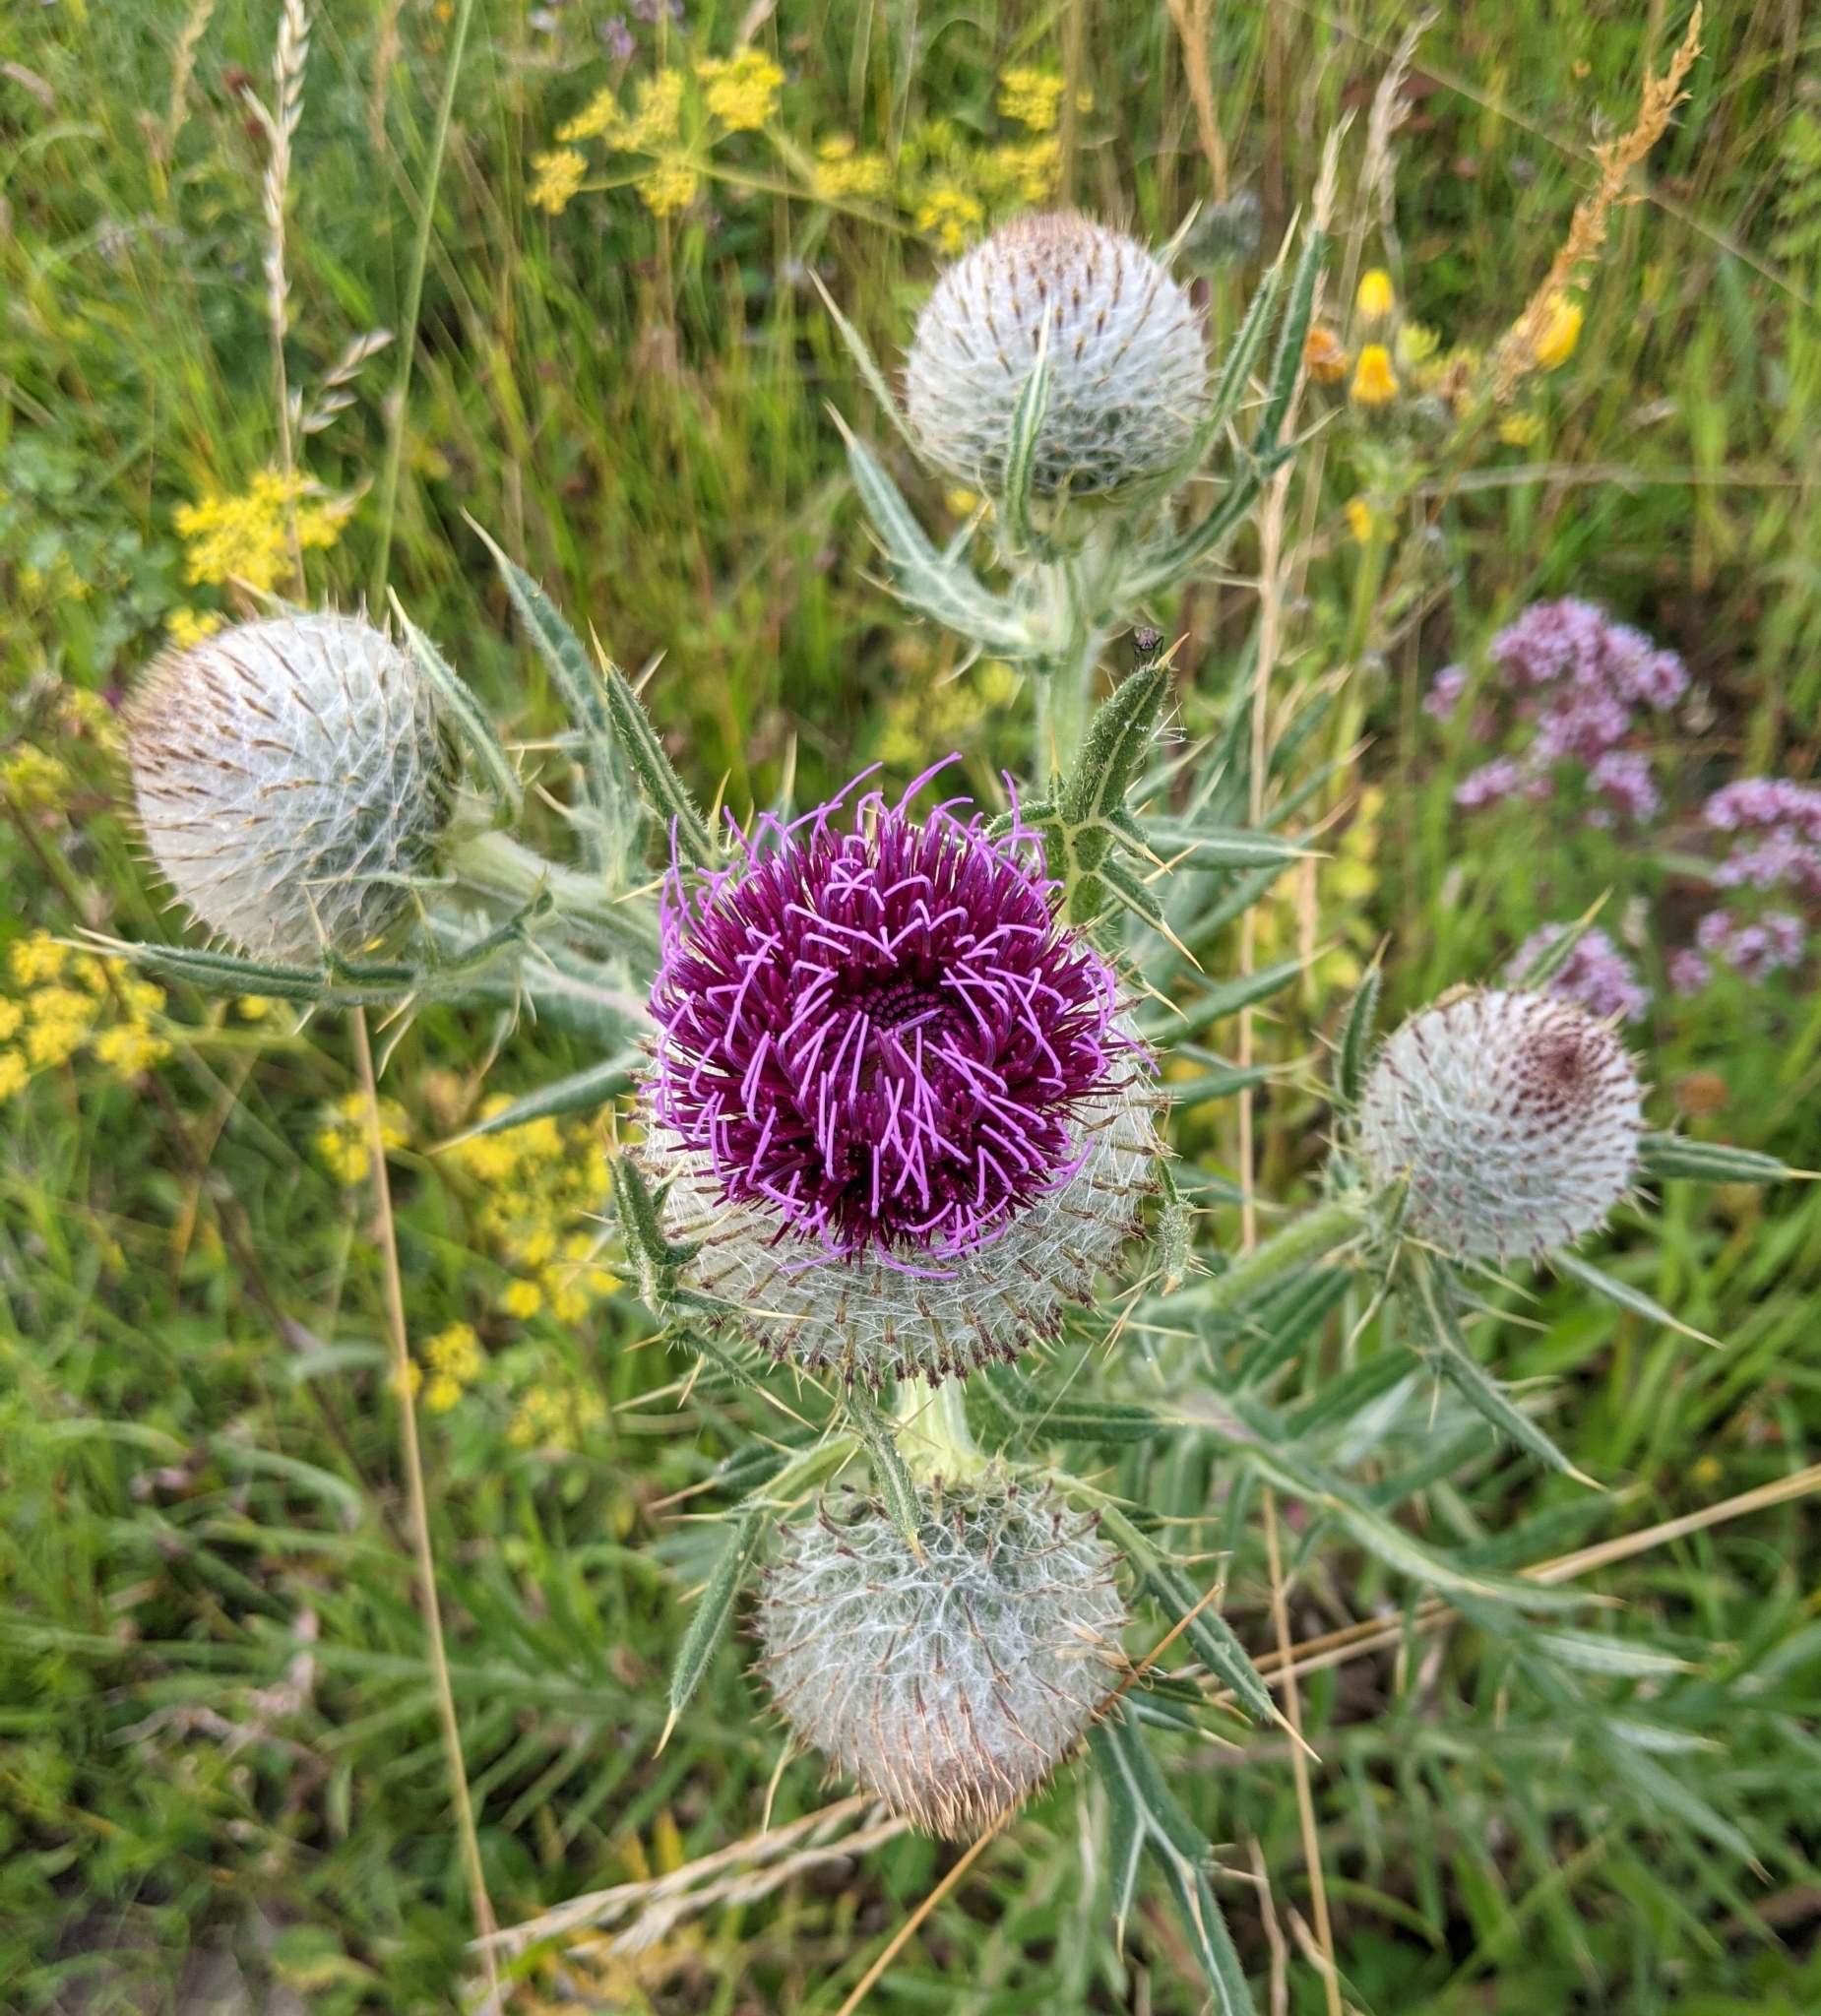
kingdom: Plantae
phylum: Tracheophyta
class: Magnoliopsida
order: Asterales
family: Asteraceae
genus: Lophiolepis
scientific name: Lophiolepis eriophora
